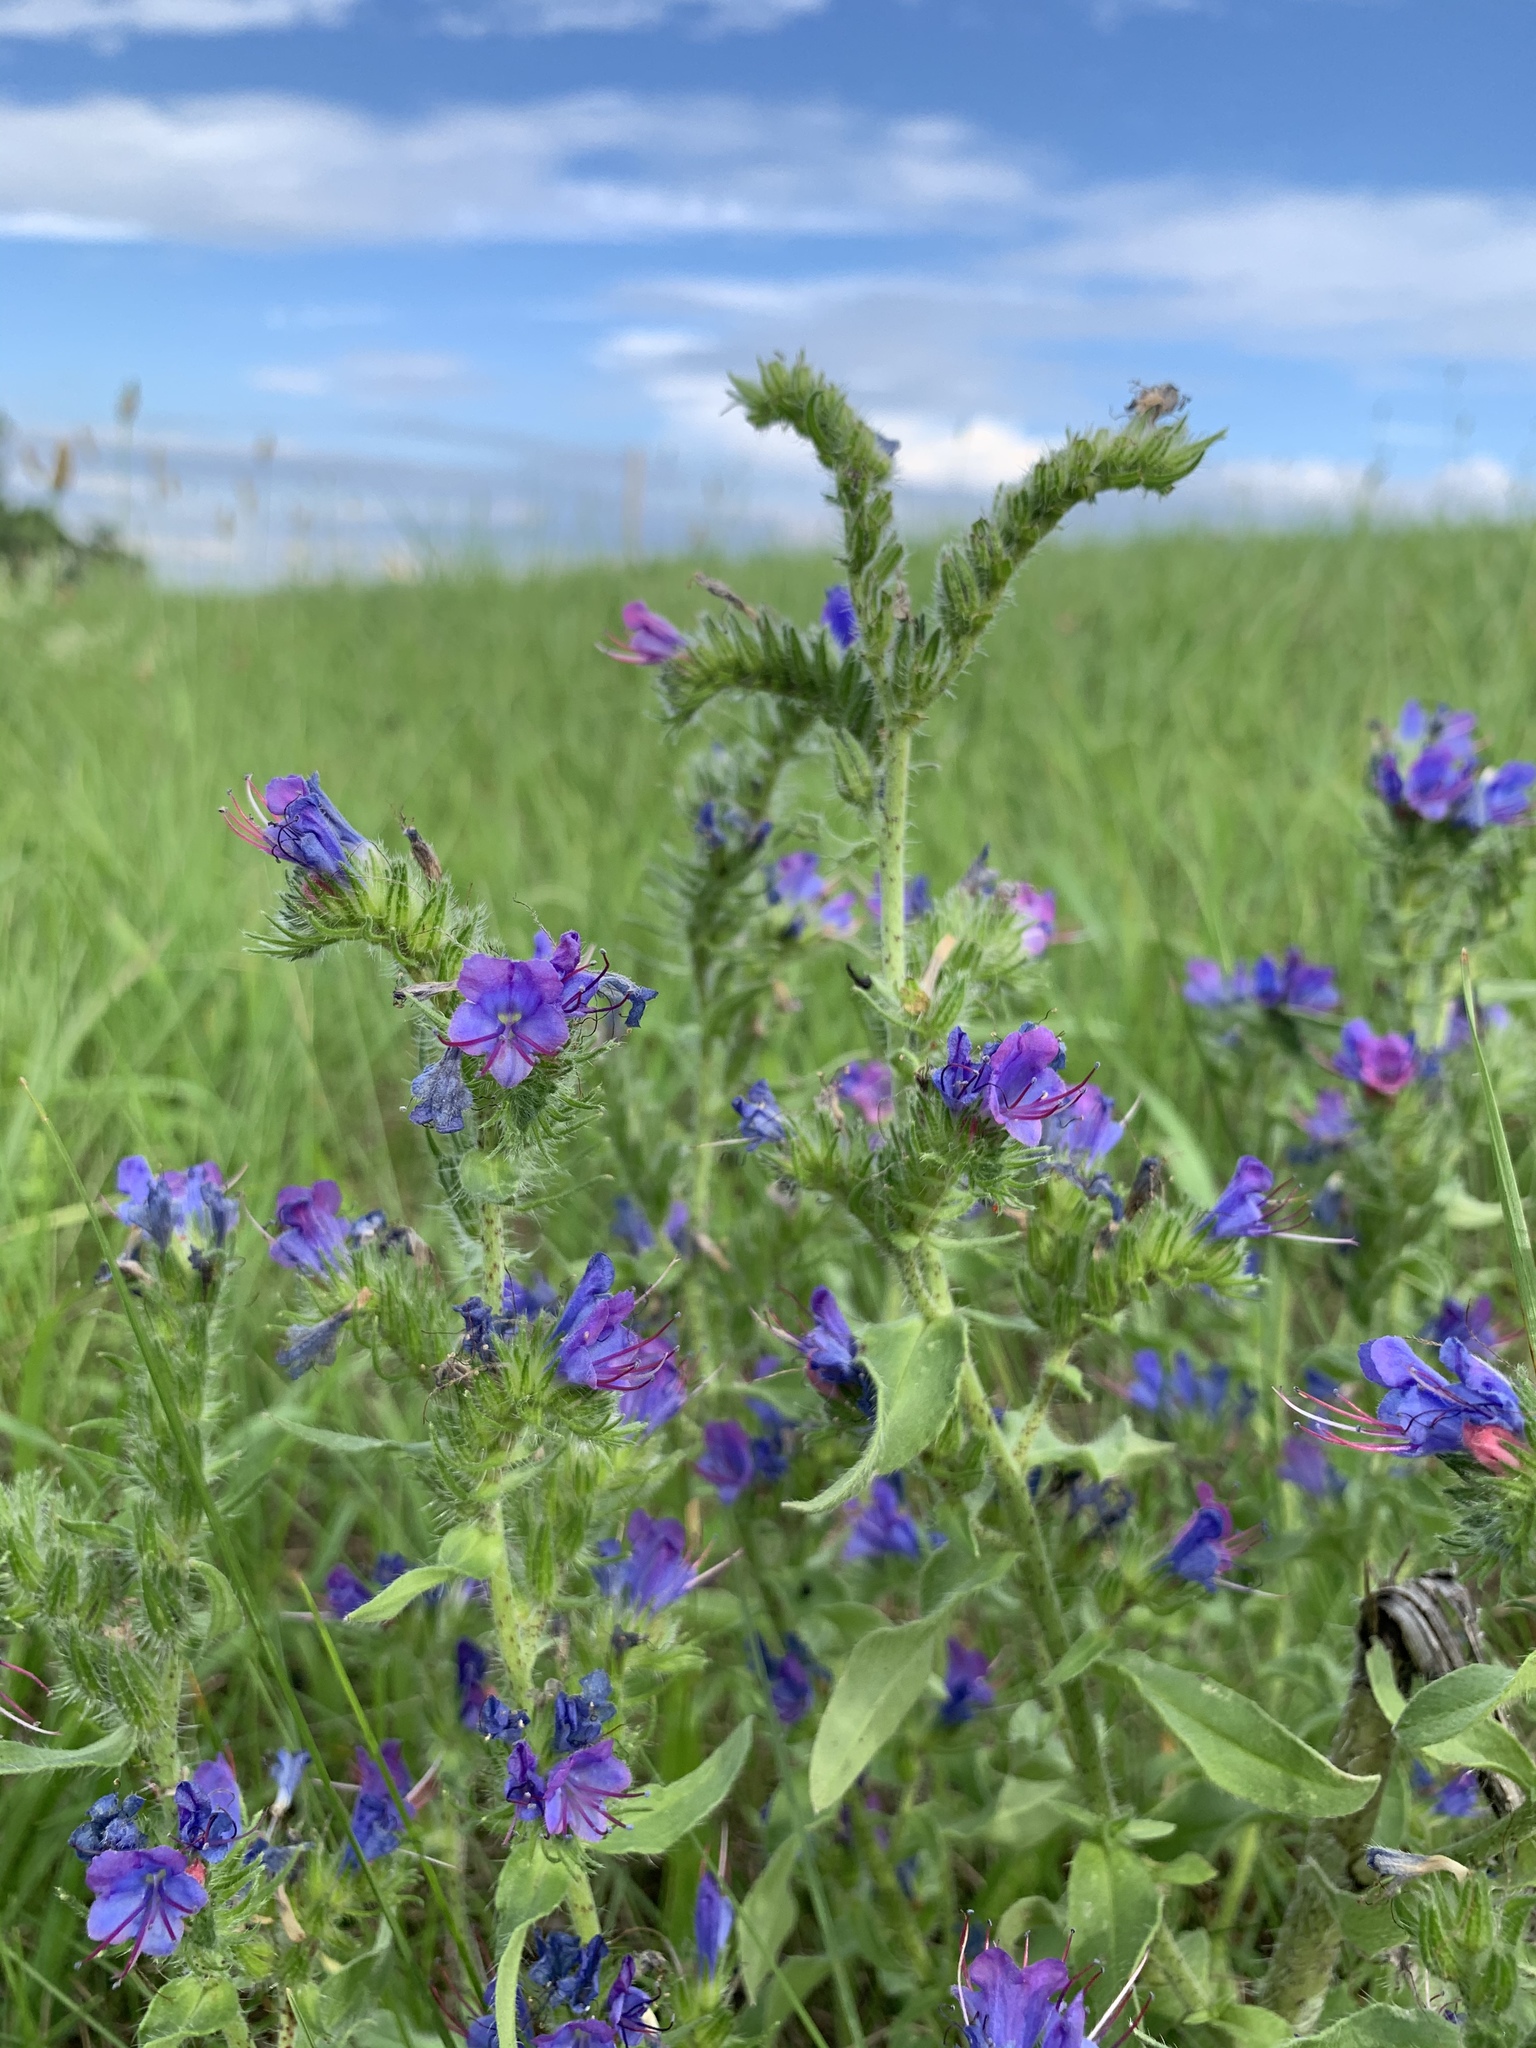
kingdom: Plantae
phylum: Tracheophyta
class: Magnoliopsida
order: Boraginales
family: Boraginaceae
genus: Echium
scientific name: Echium vulgare
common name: Common viper's bugloss
